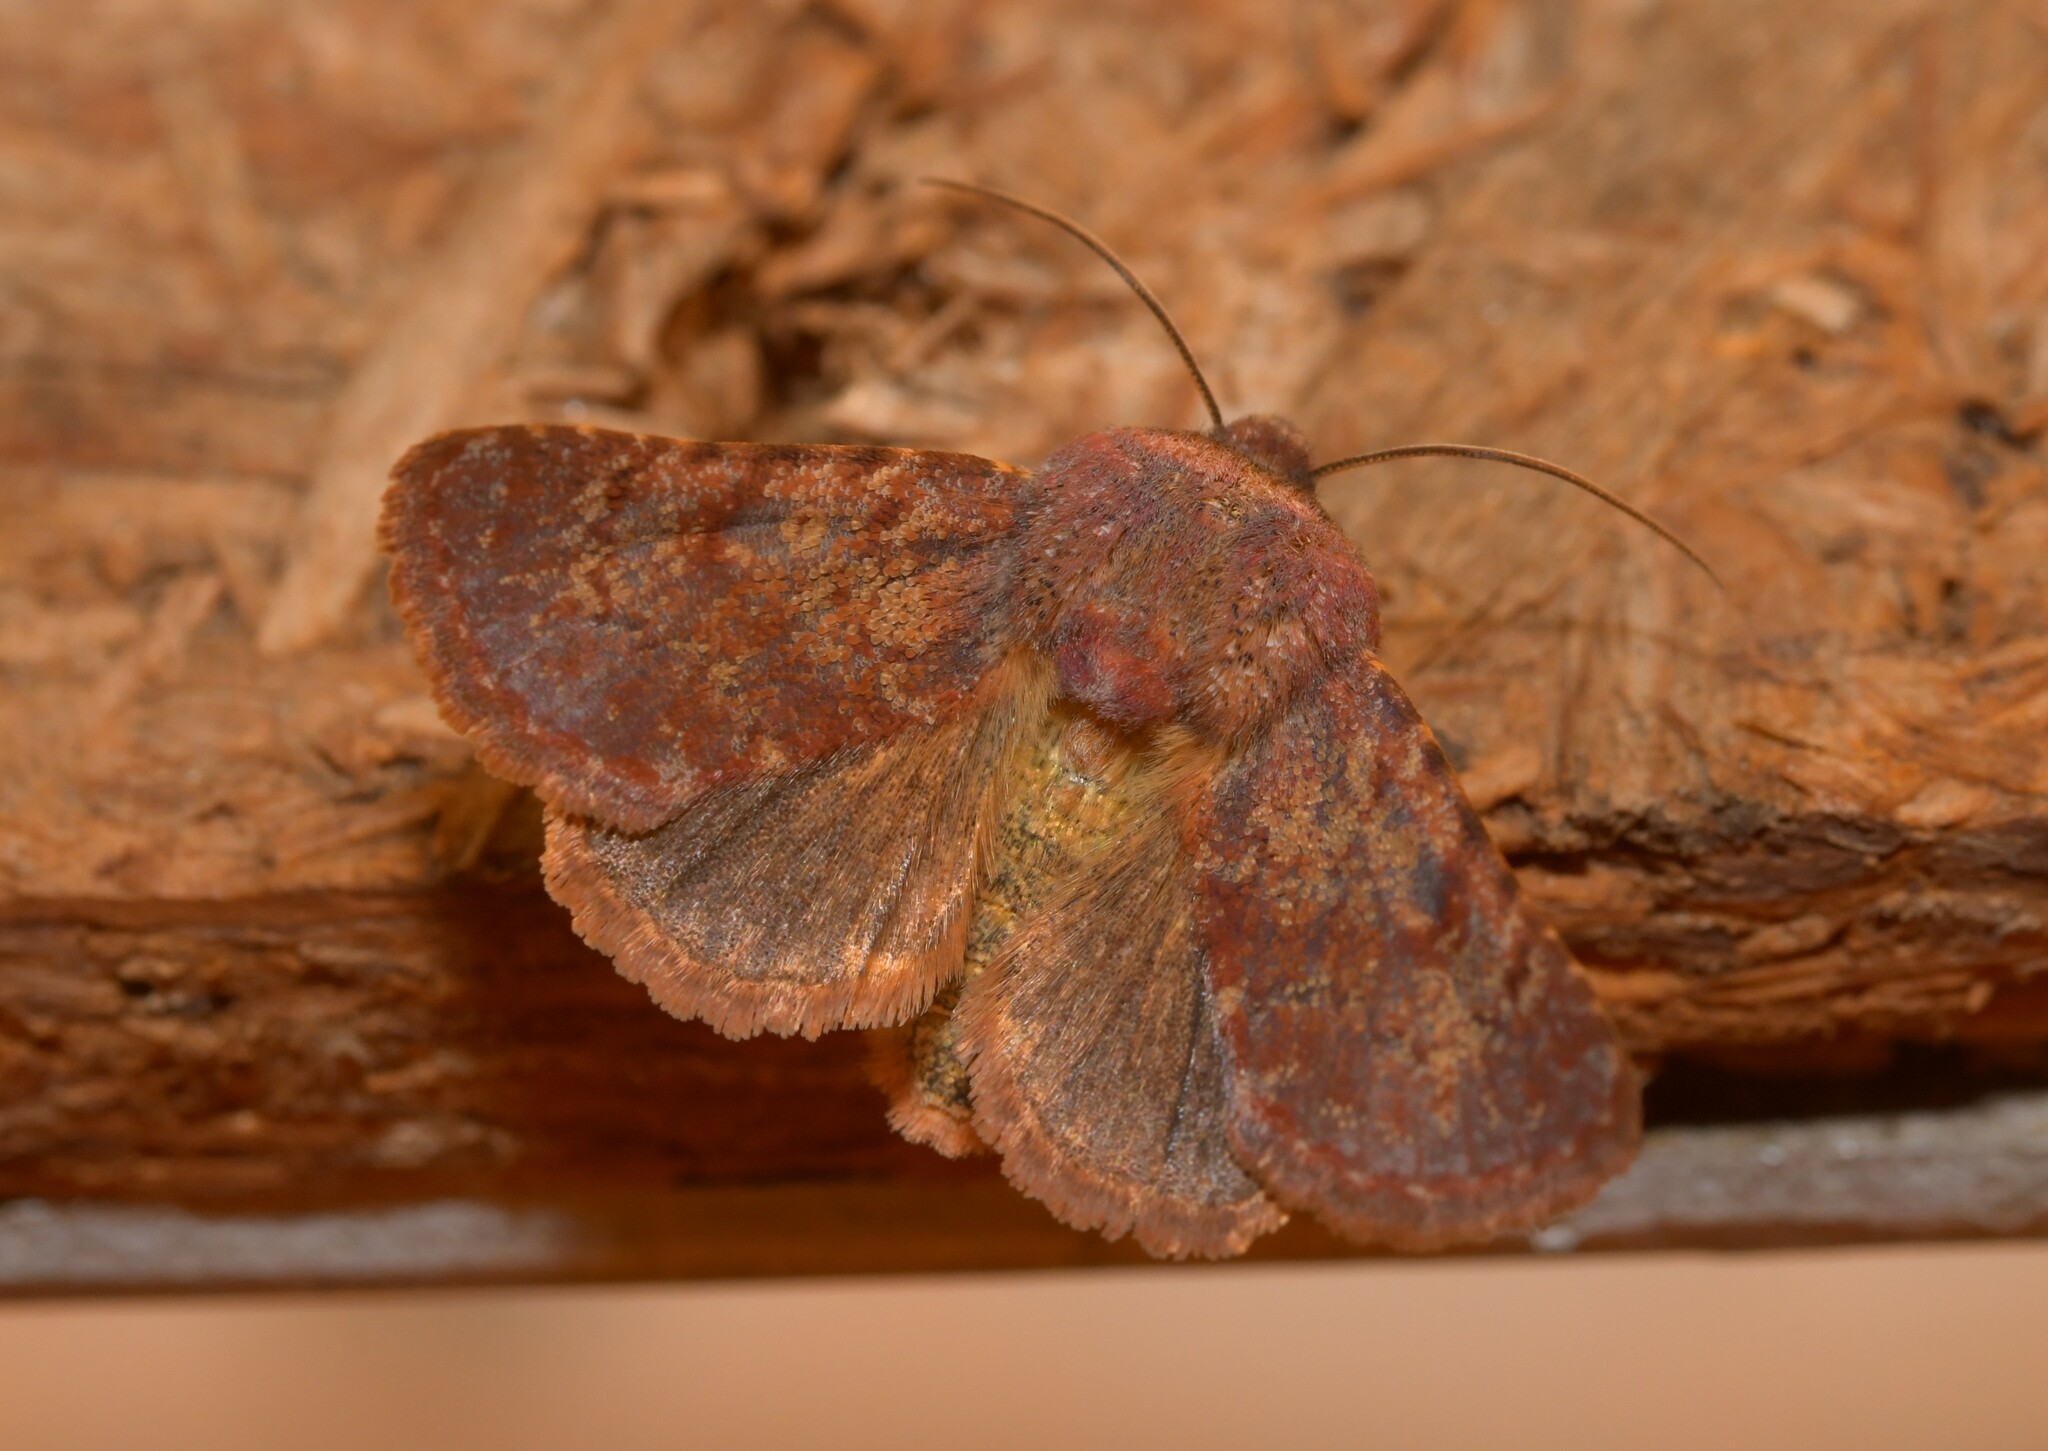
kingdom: Animalia
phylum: Arthropoda
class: Insecta
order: Lepidoptera
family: Noctuidae
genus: Metopoceras
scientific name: Metopoceras felicina
